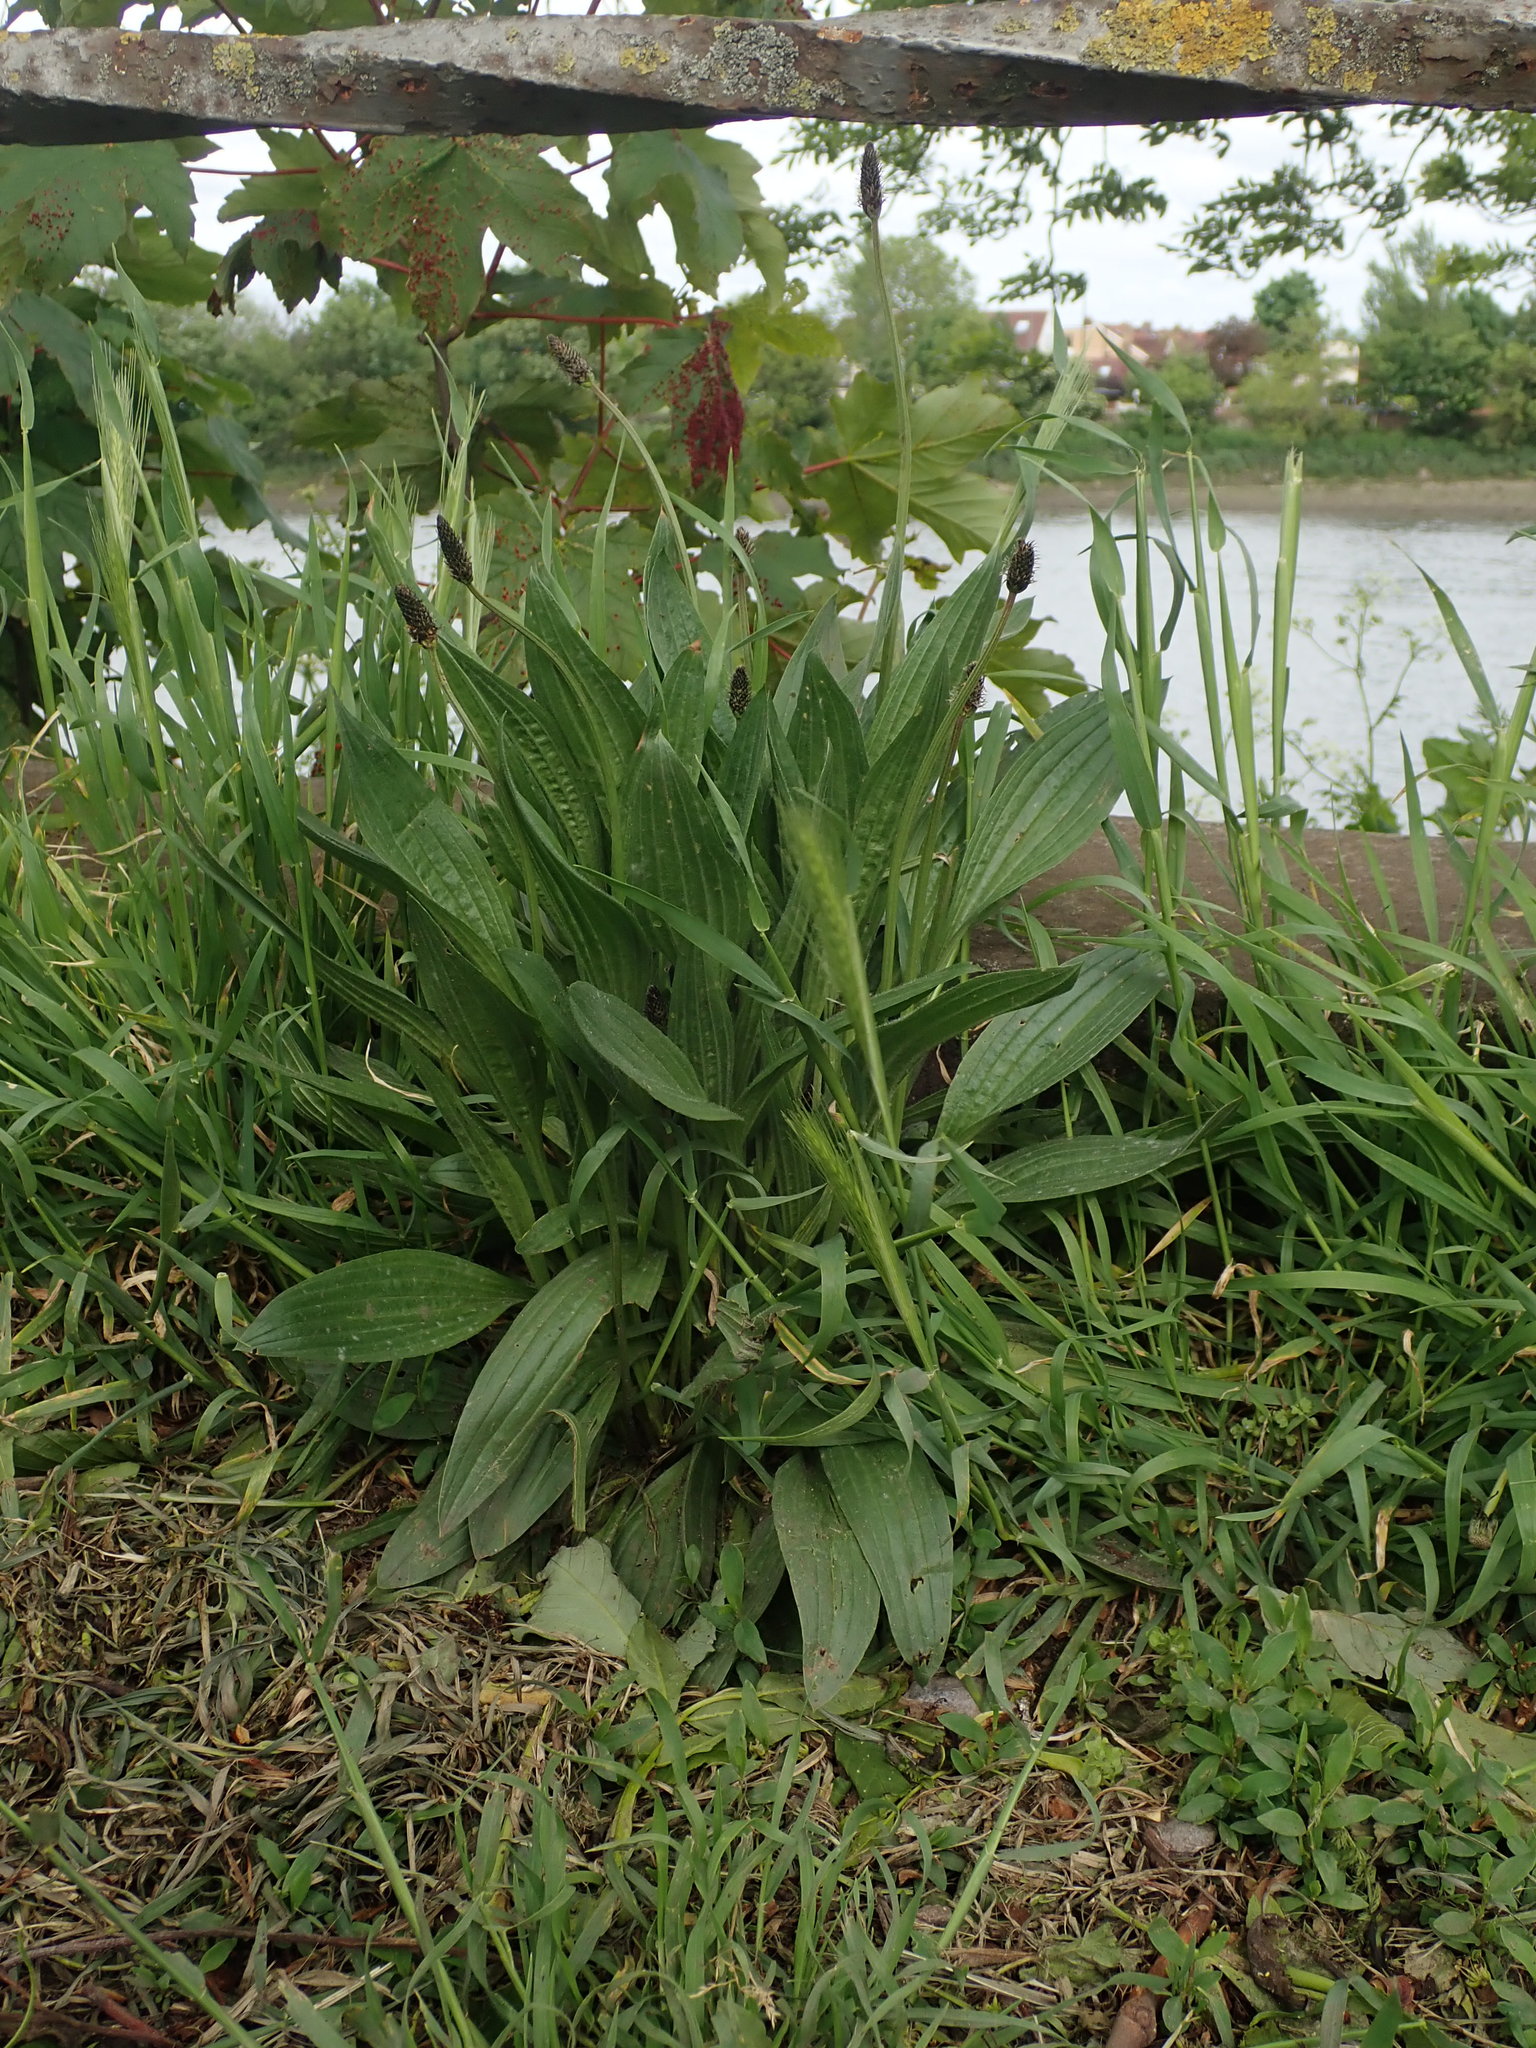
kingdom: Plantae
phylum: Tracheophyta
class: Magnoliopsida
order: Lamiales
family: Plantaginaceae
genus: Plantago
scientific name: Plantago lanceolata
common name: Ribwort plantain
